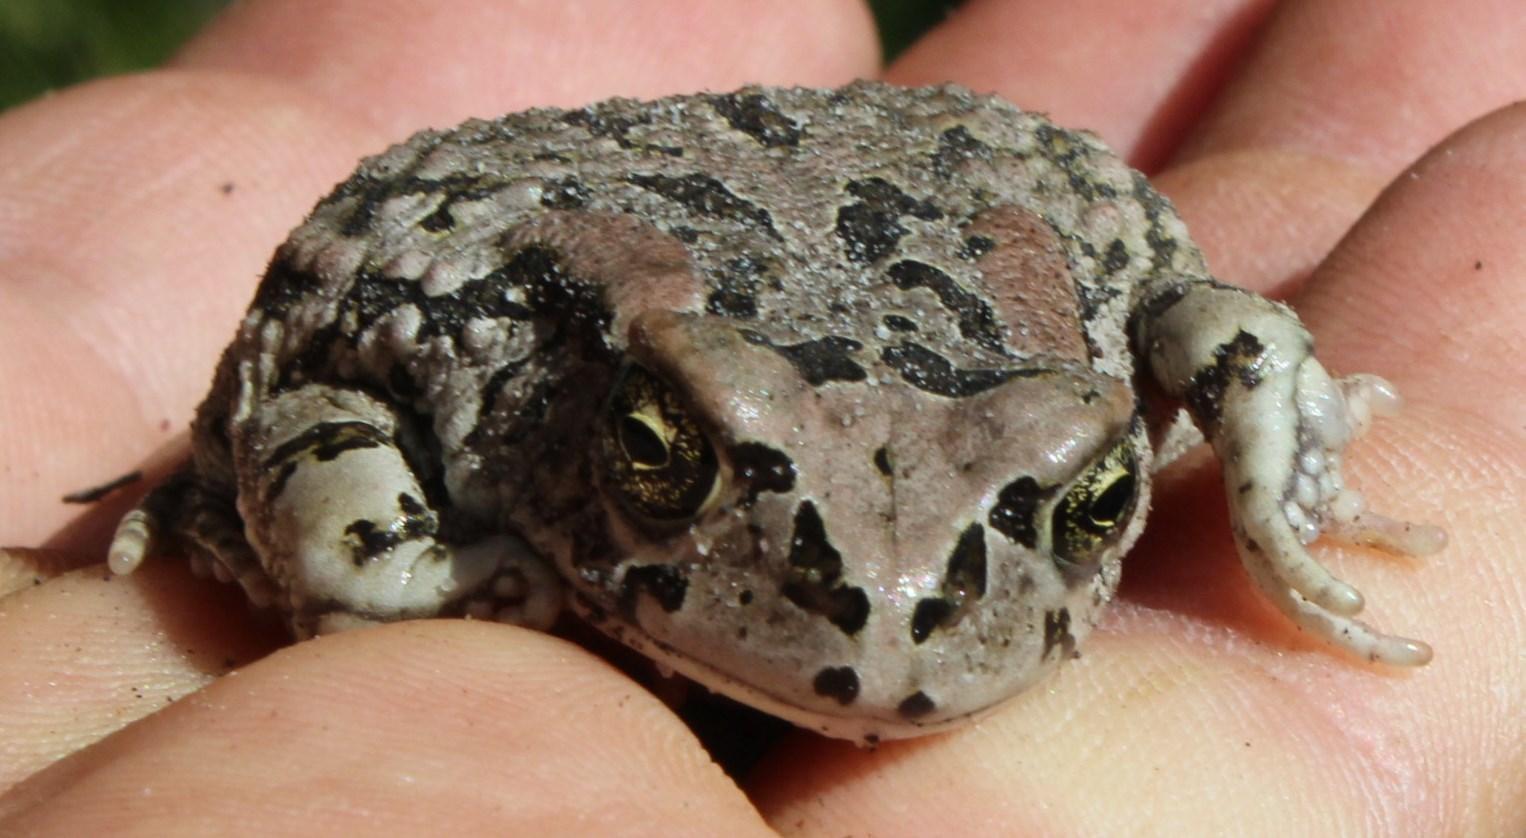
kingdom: Animalia
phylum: Chordata
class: Amphibia
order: Anura
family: Bufonidae
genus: Sclerophrys
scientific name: Sclerophrys capensis
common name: Ranger’s toad
